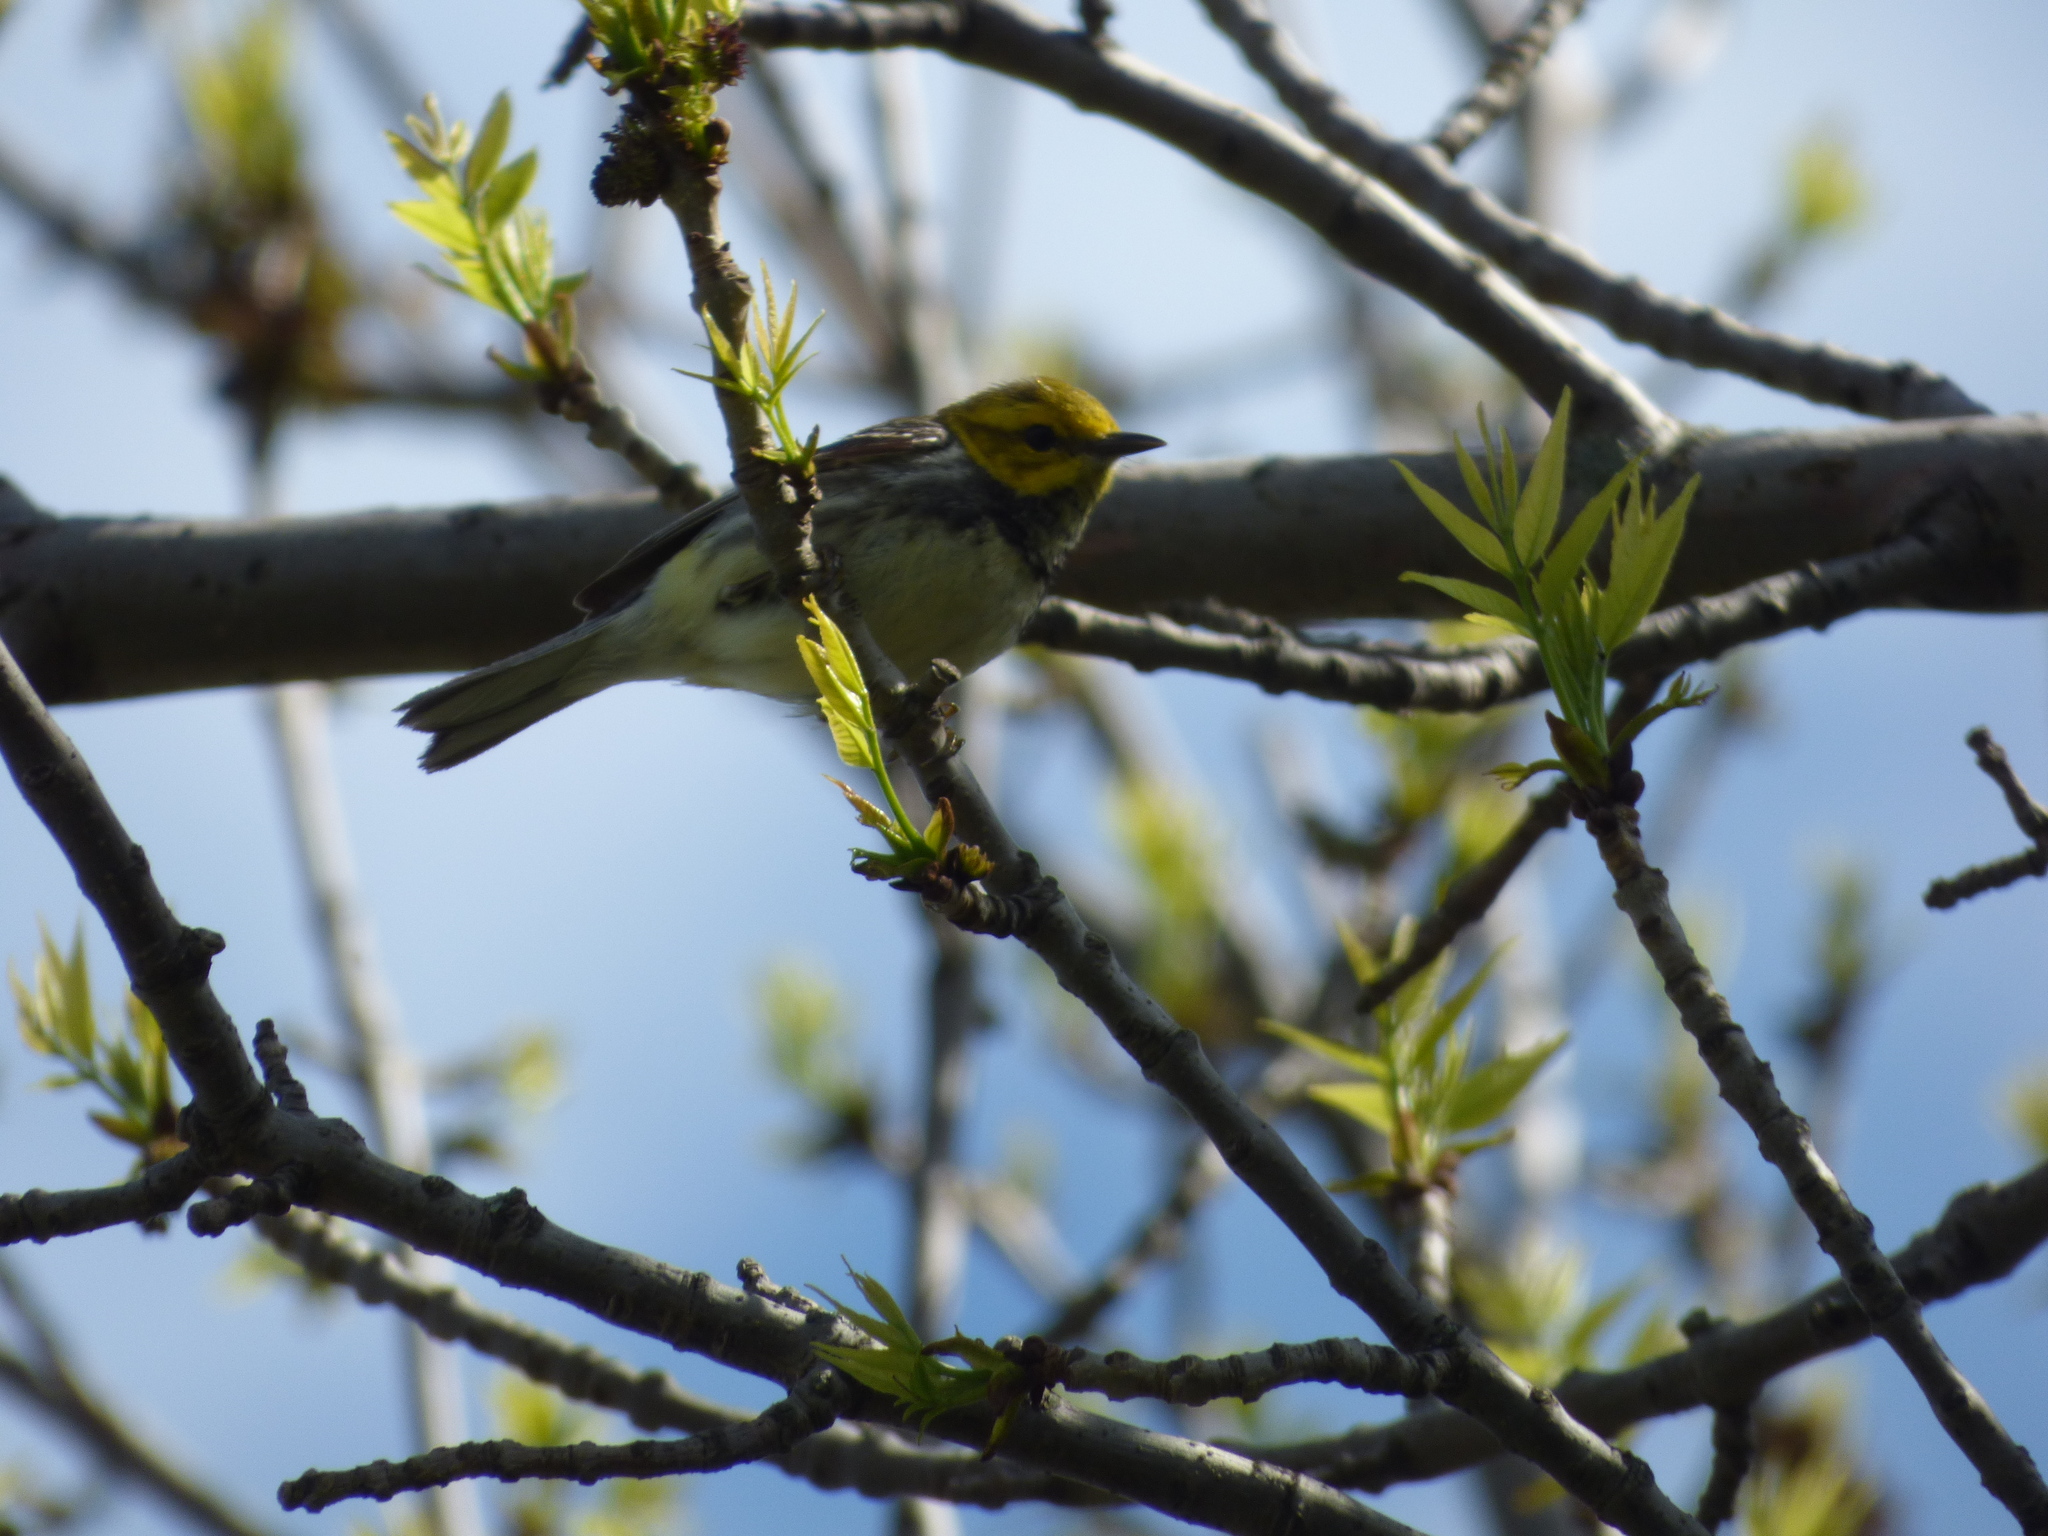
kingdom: Animalia
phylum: Chordata
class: Aves
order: Passeriformes
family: Parulidae
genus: Setophaga
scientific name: Setophaga virens
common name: Black-throated green warbler
